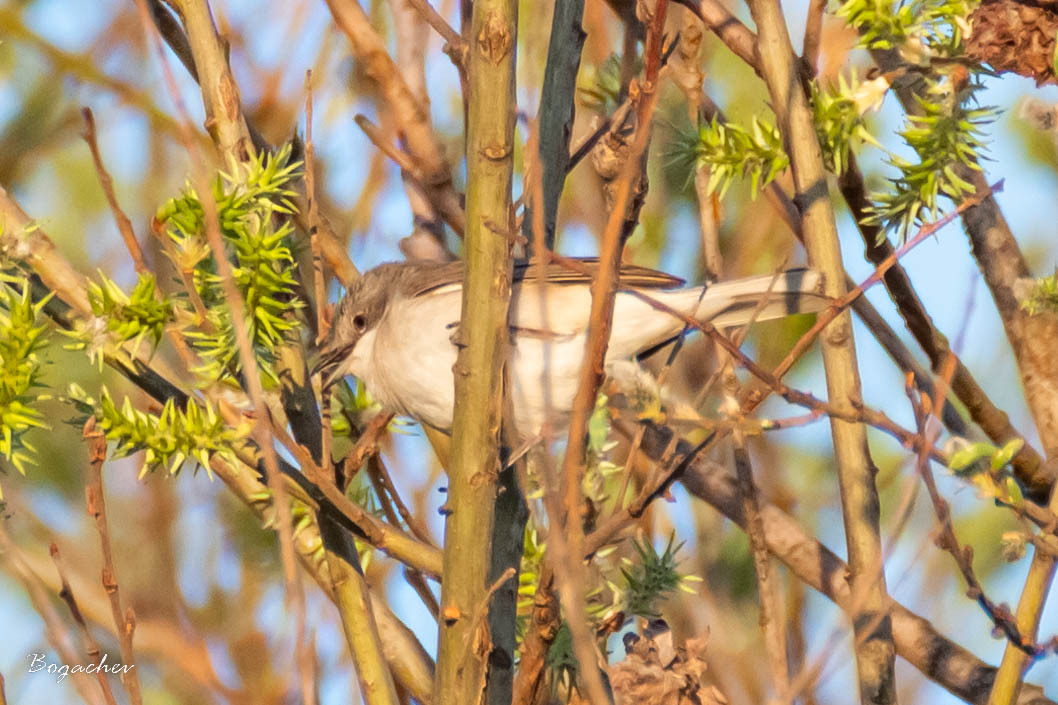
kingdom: Animalia
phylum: Chordata
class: Aves
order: Passeriformes
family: Sylviidae
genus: Sylvia
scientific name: Sylvia curruca
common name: Lesser whitethroat
